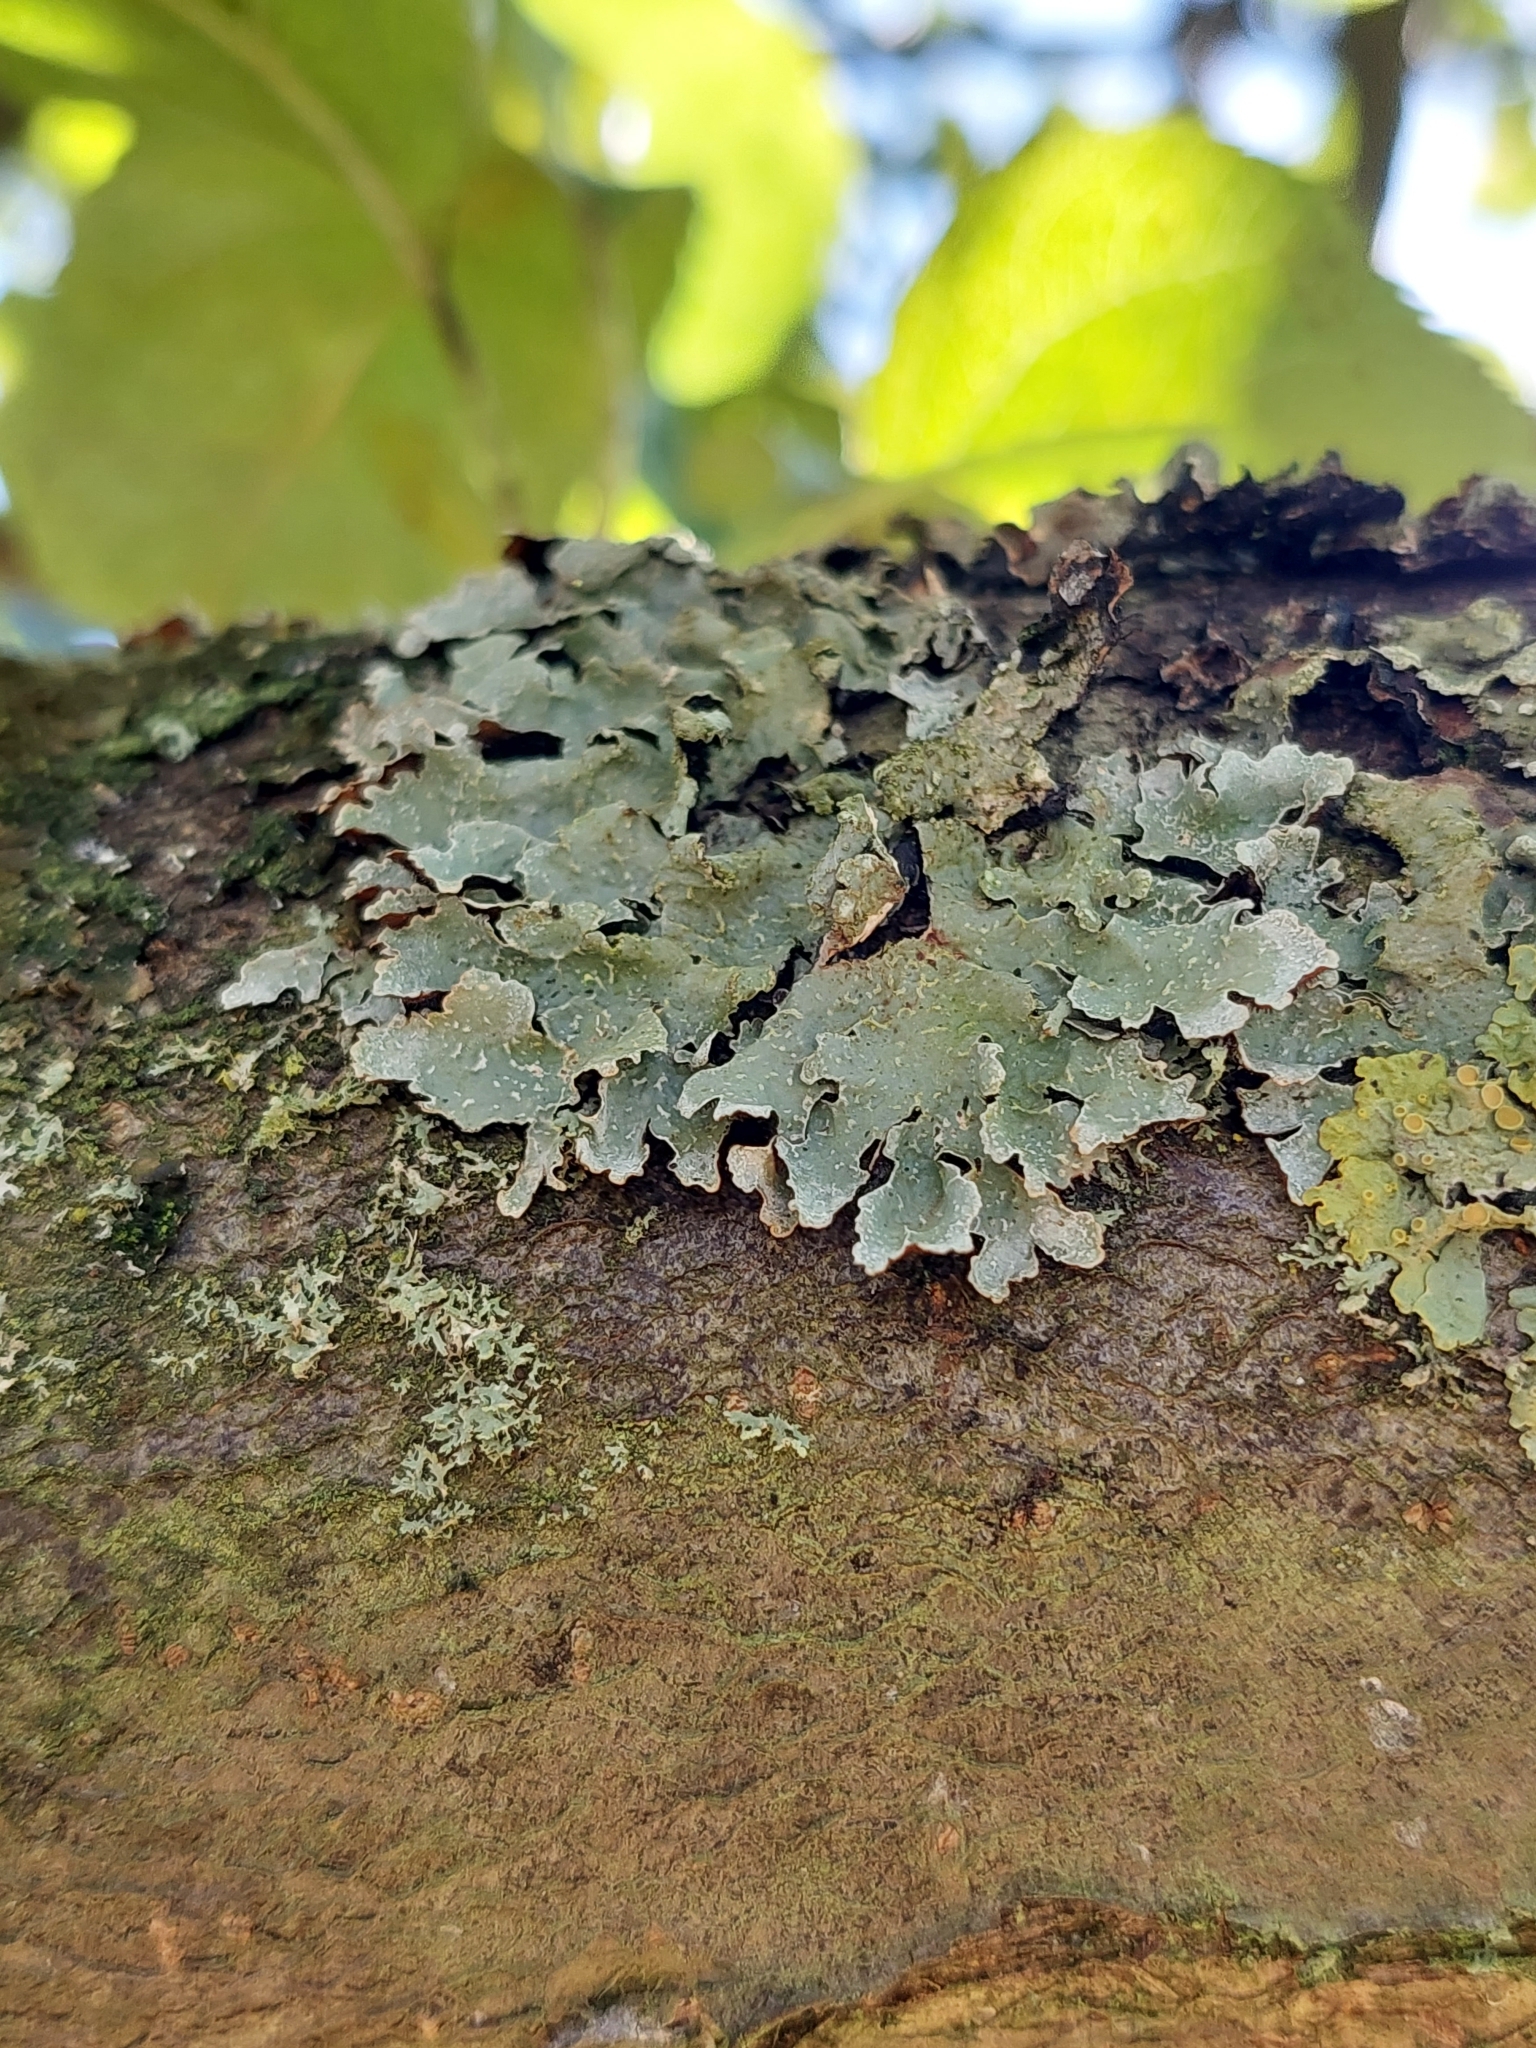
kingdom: Fungi
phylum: Ascomycota
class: Lecanoromycetes
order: Lecanorales
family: Parmeliaceae
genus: Parmelia
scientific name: Parmelia sulcata
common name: Netted shield lichen
